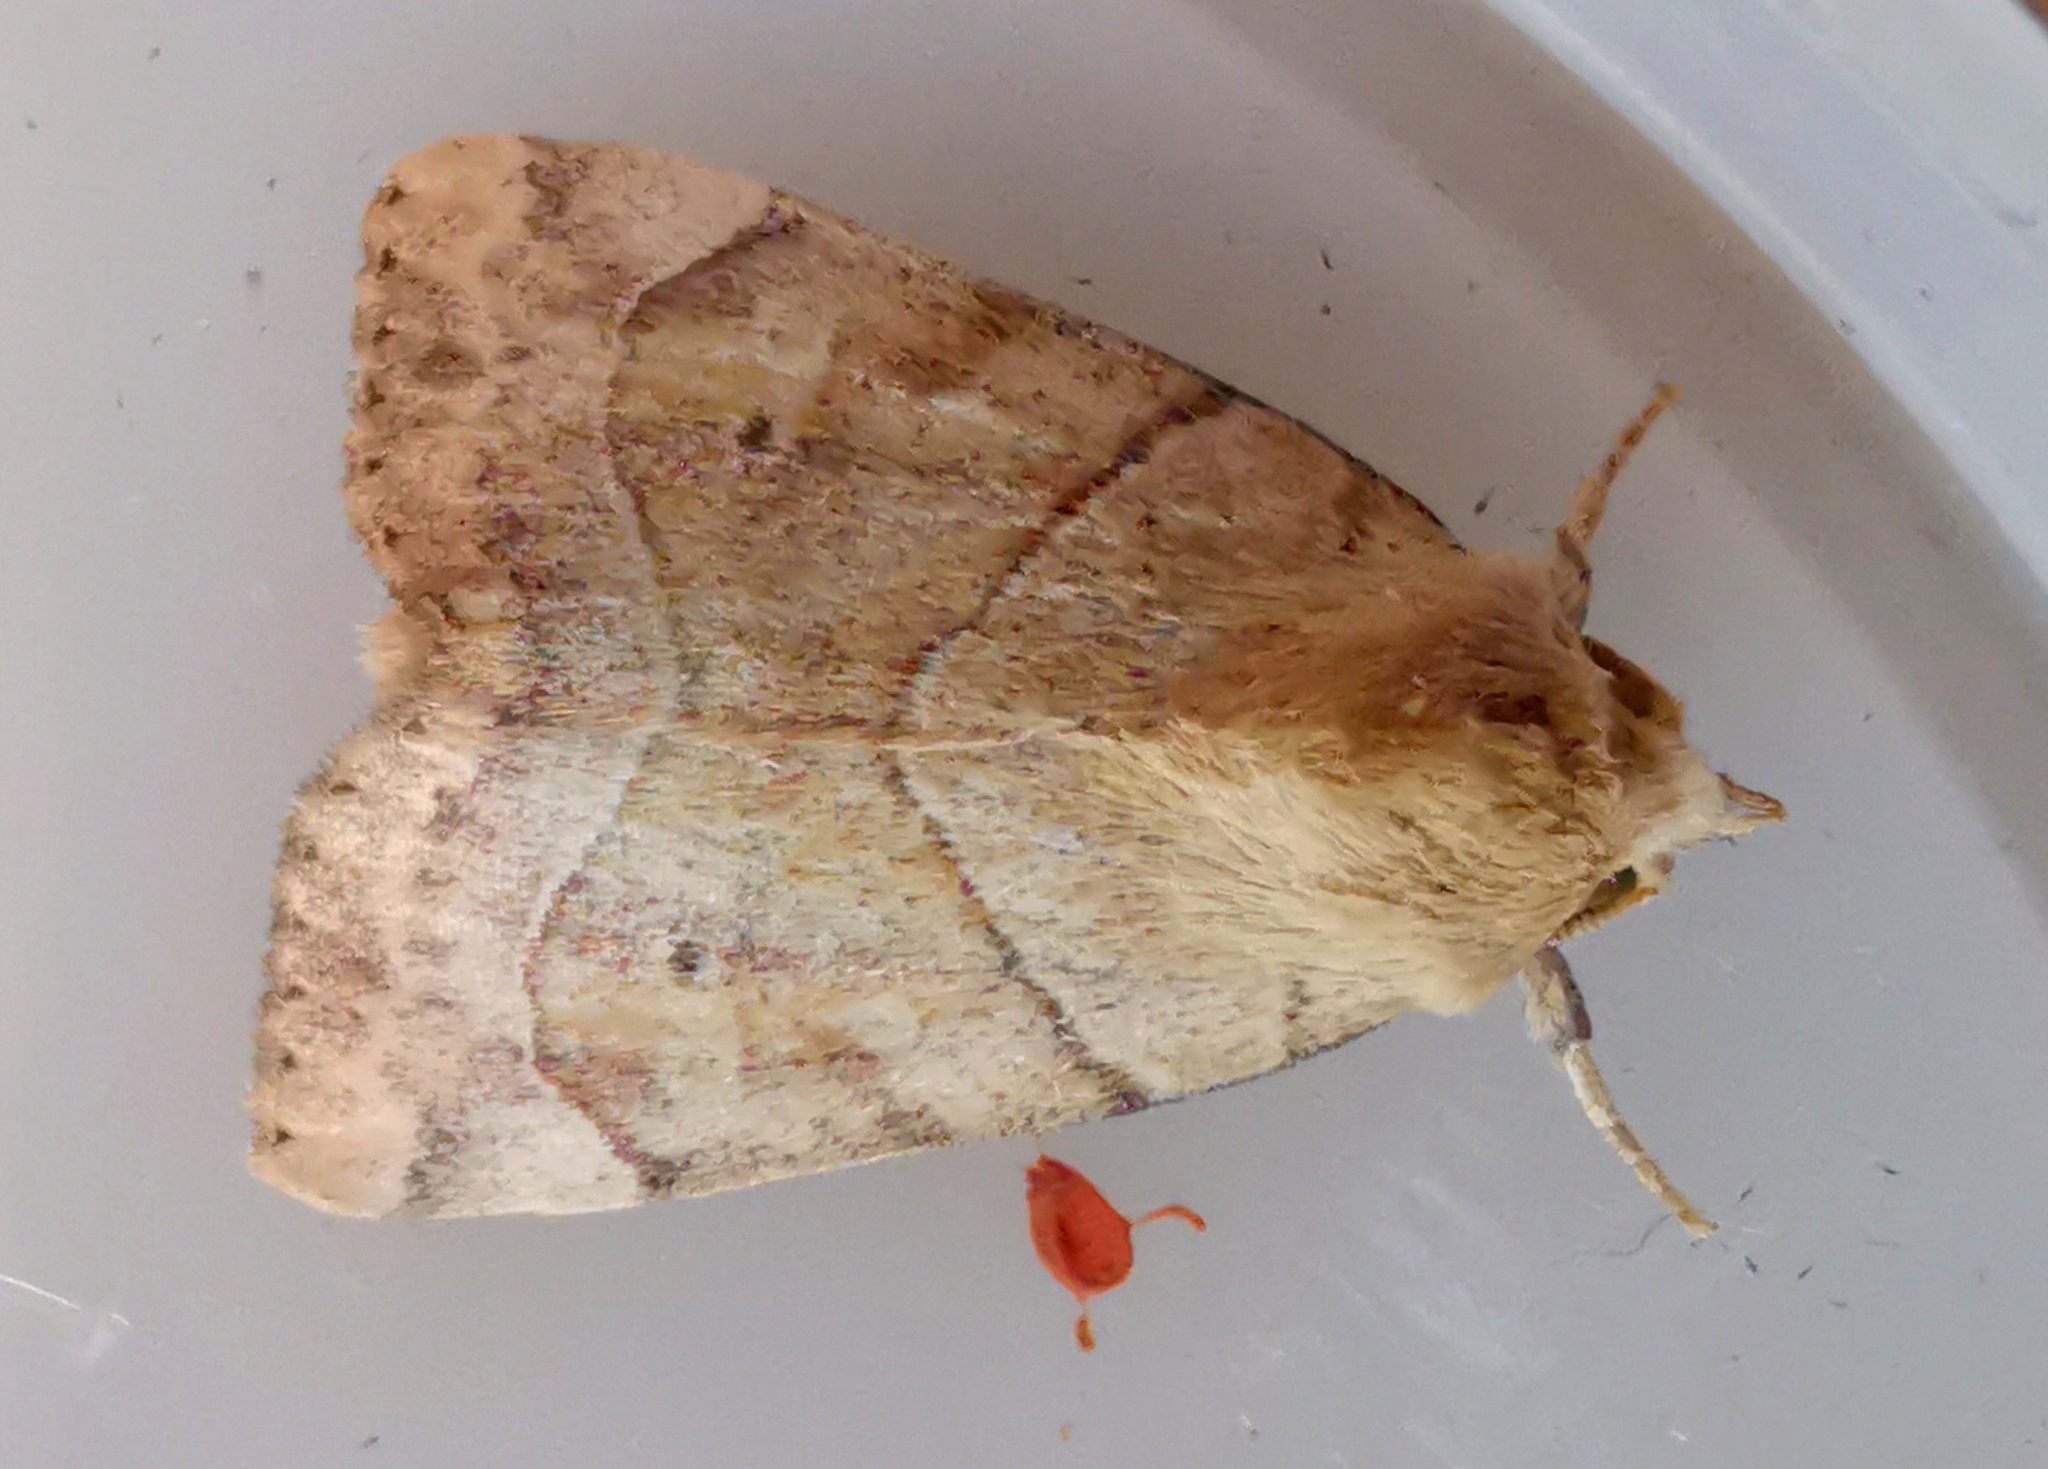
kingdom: Animalia
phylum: Arthropoda
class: Insecta
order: Lepidoptera
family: Noctuidae
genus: Cosmia
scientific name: Cosmia trapezina
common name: Dun-bar
